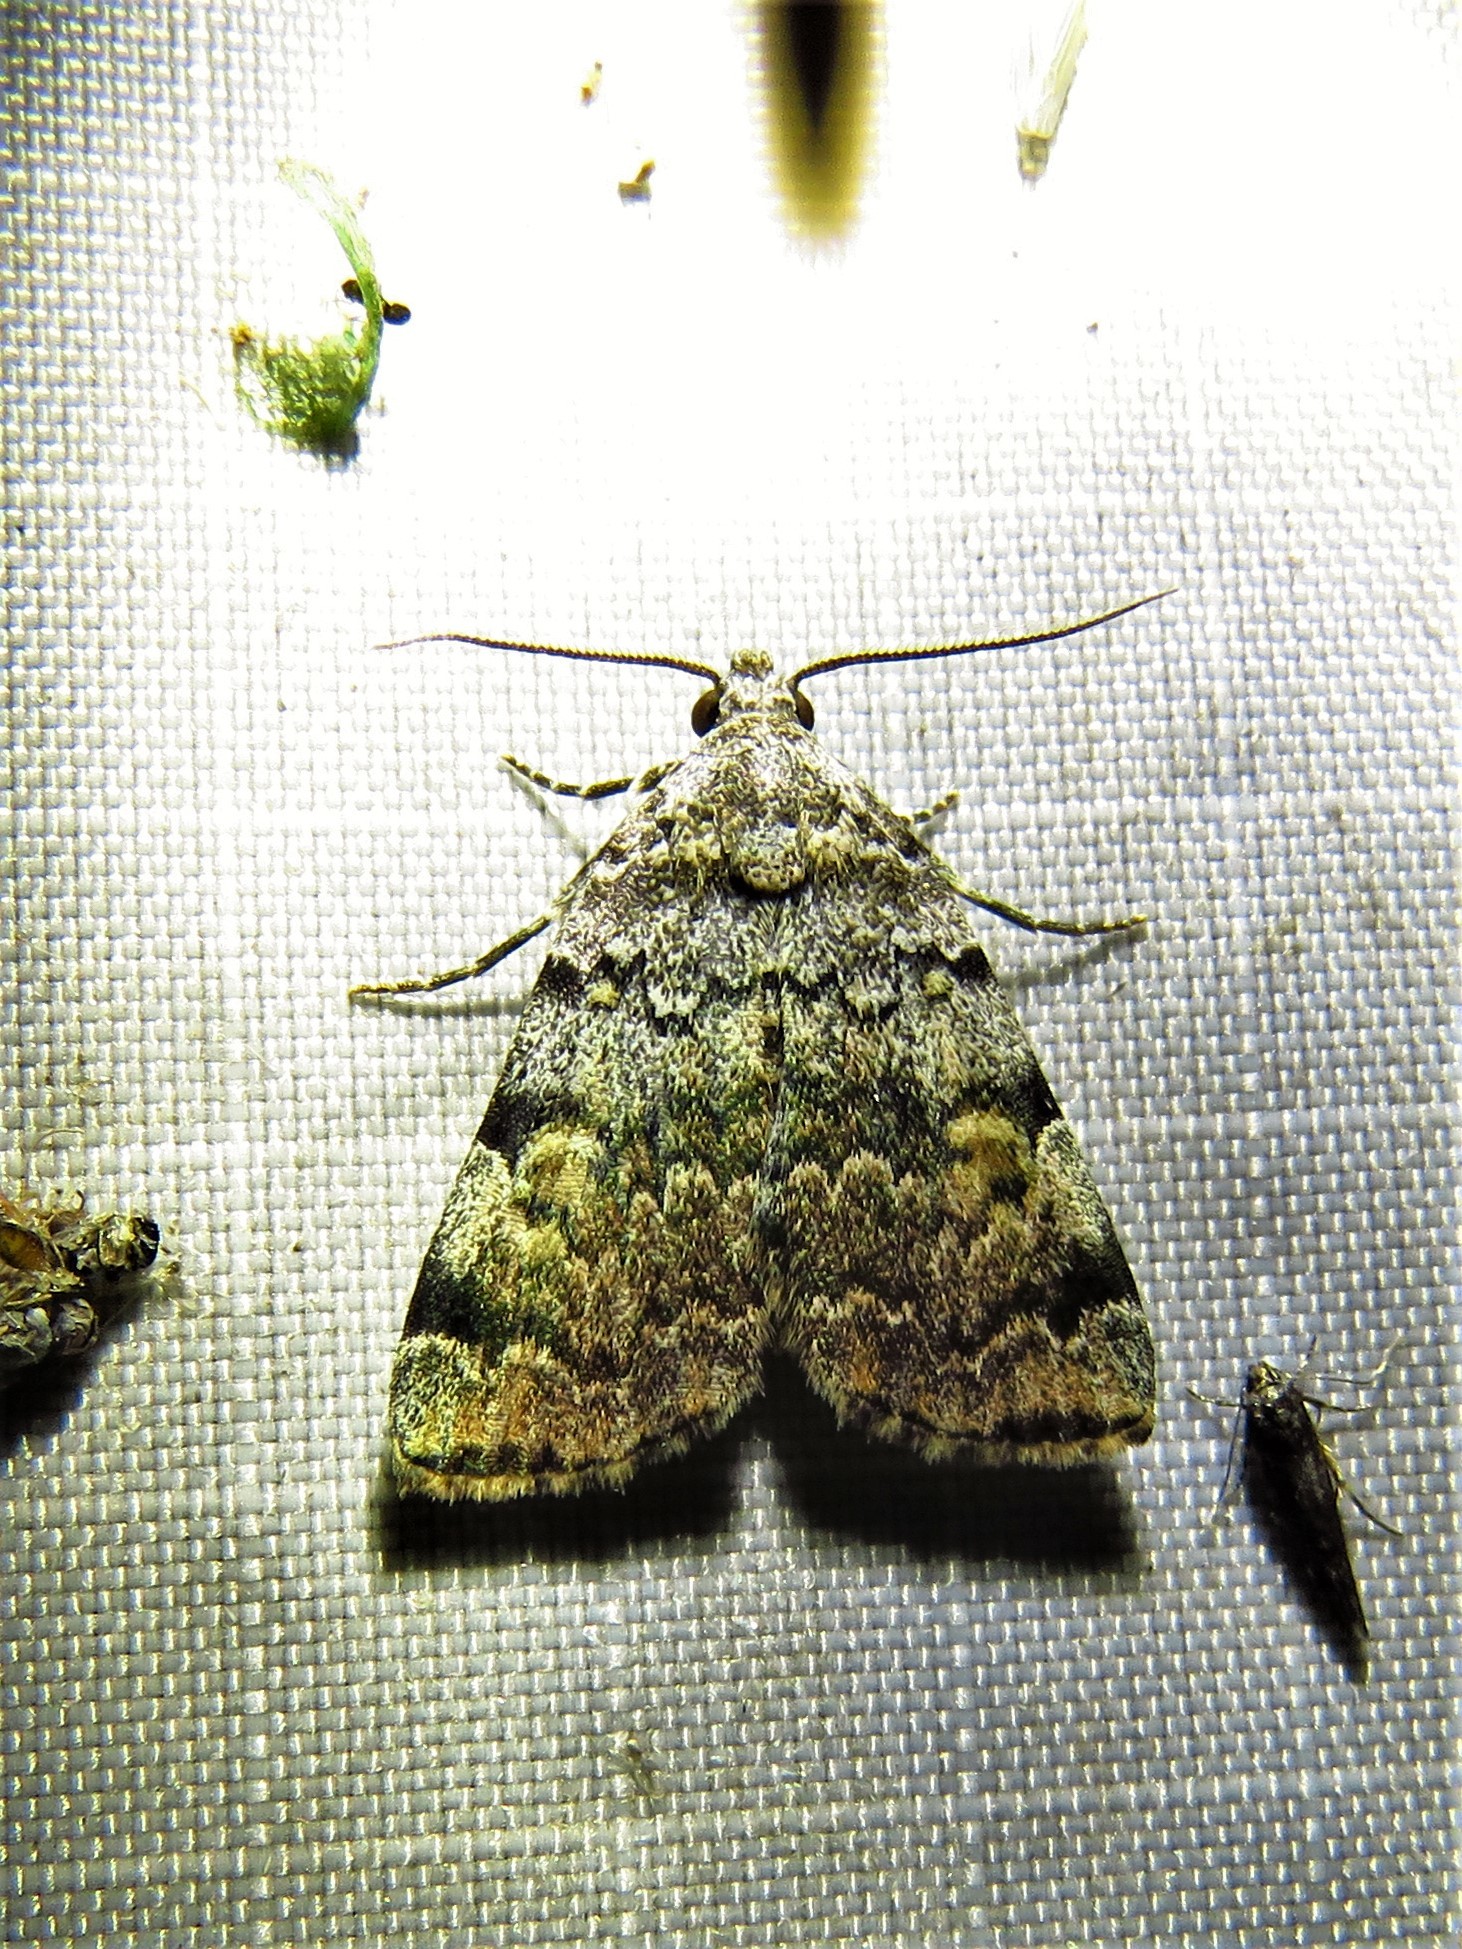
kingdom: Animalia
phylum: Arthropoda
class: Insecta
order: Lepidoptera
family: Erebidae
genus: Idia
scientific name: Idia americalis
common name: American idia moth
